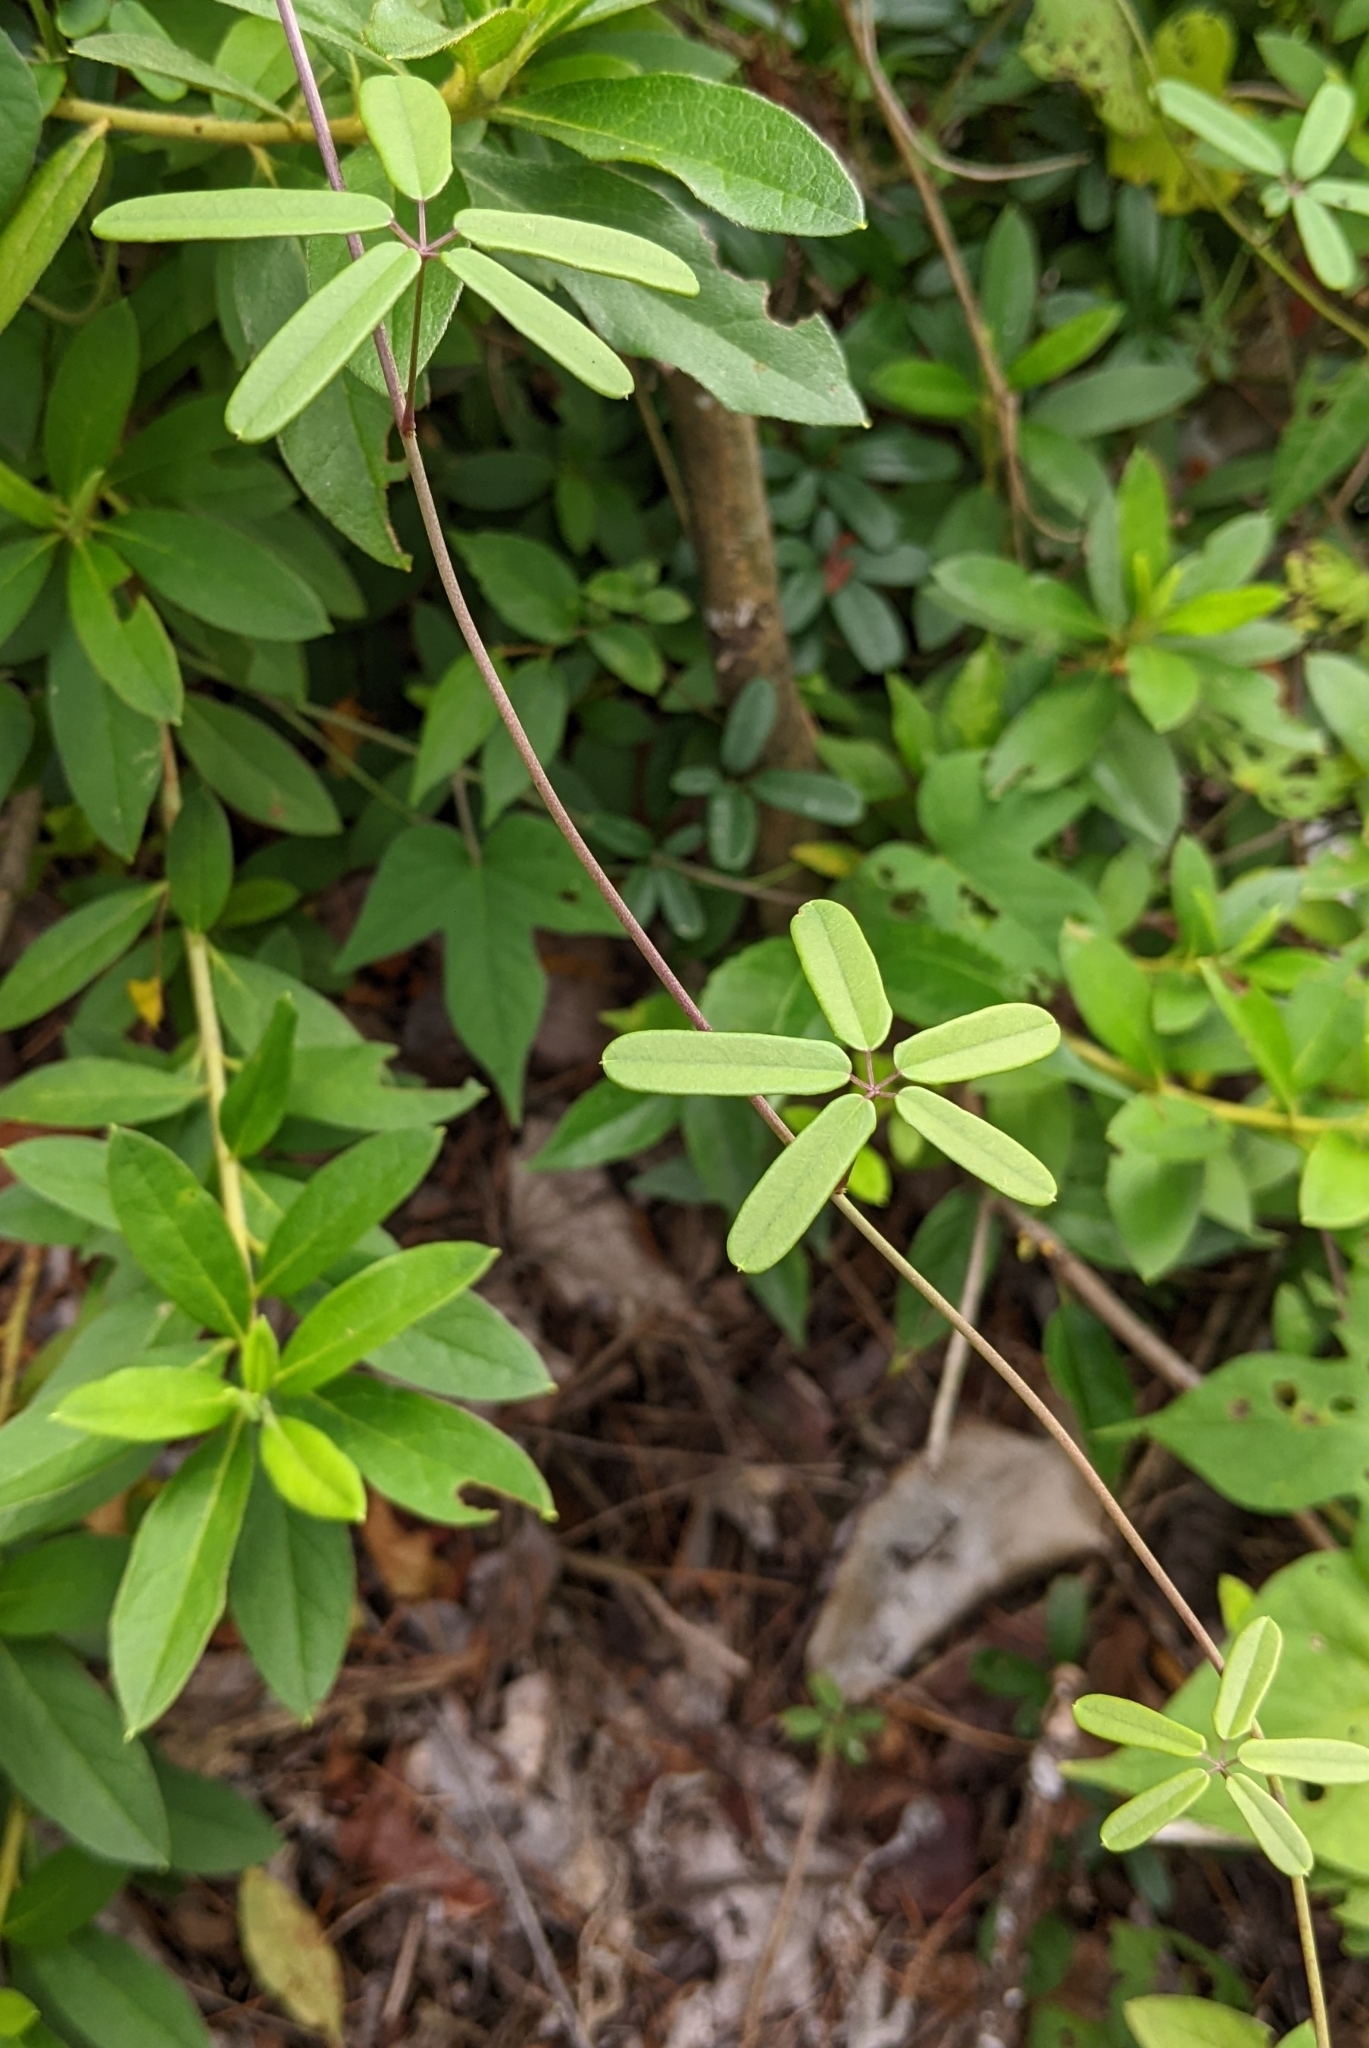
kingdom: Plantae
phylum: Tracheophyta
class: Magnoliopsida
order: Ranunculales
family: Lardizabalaceae
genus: Akebia
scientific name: Akebia longeracemosa
